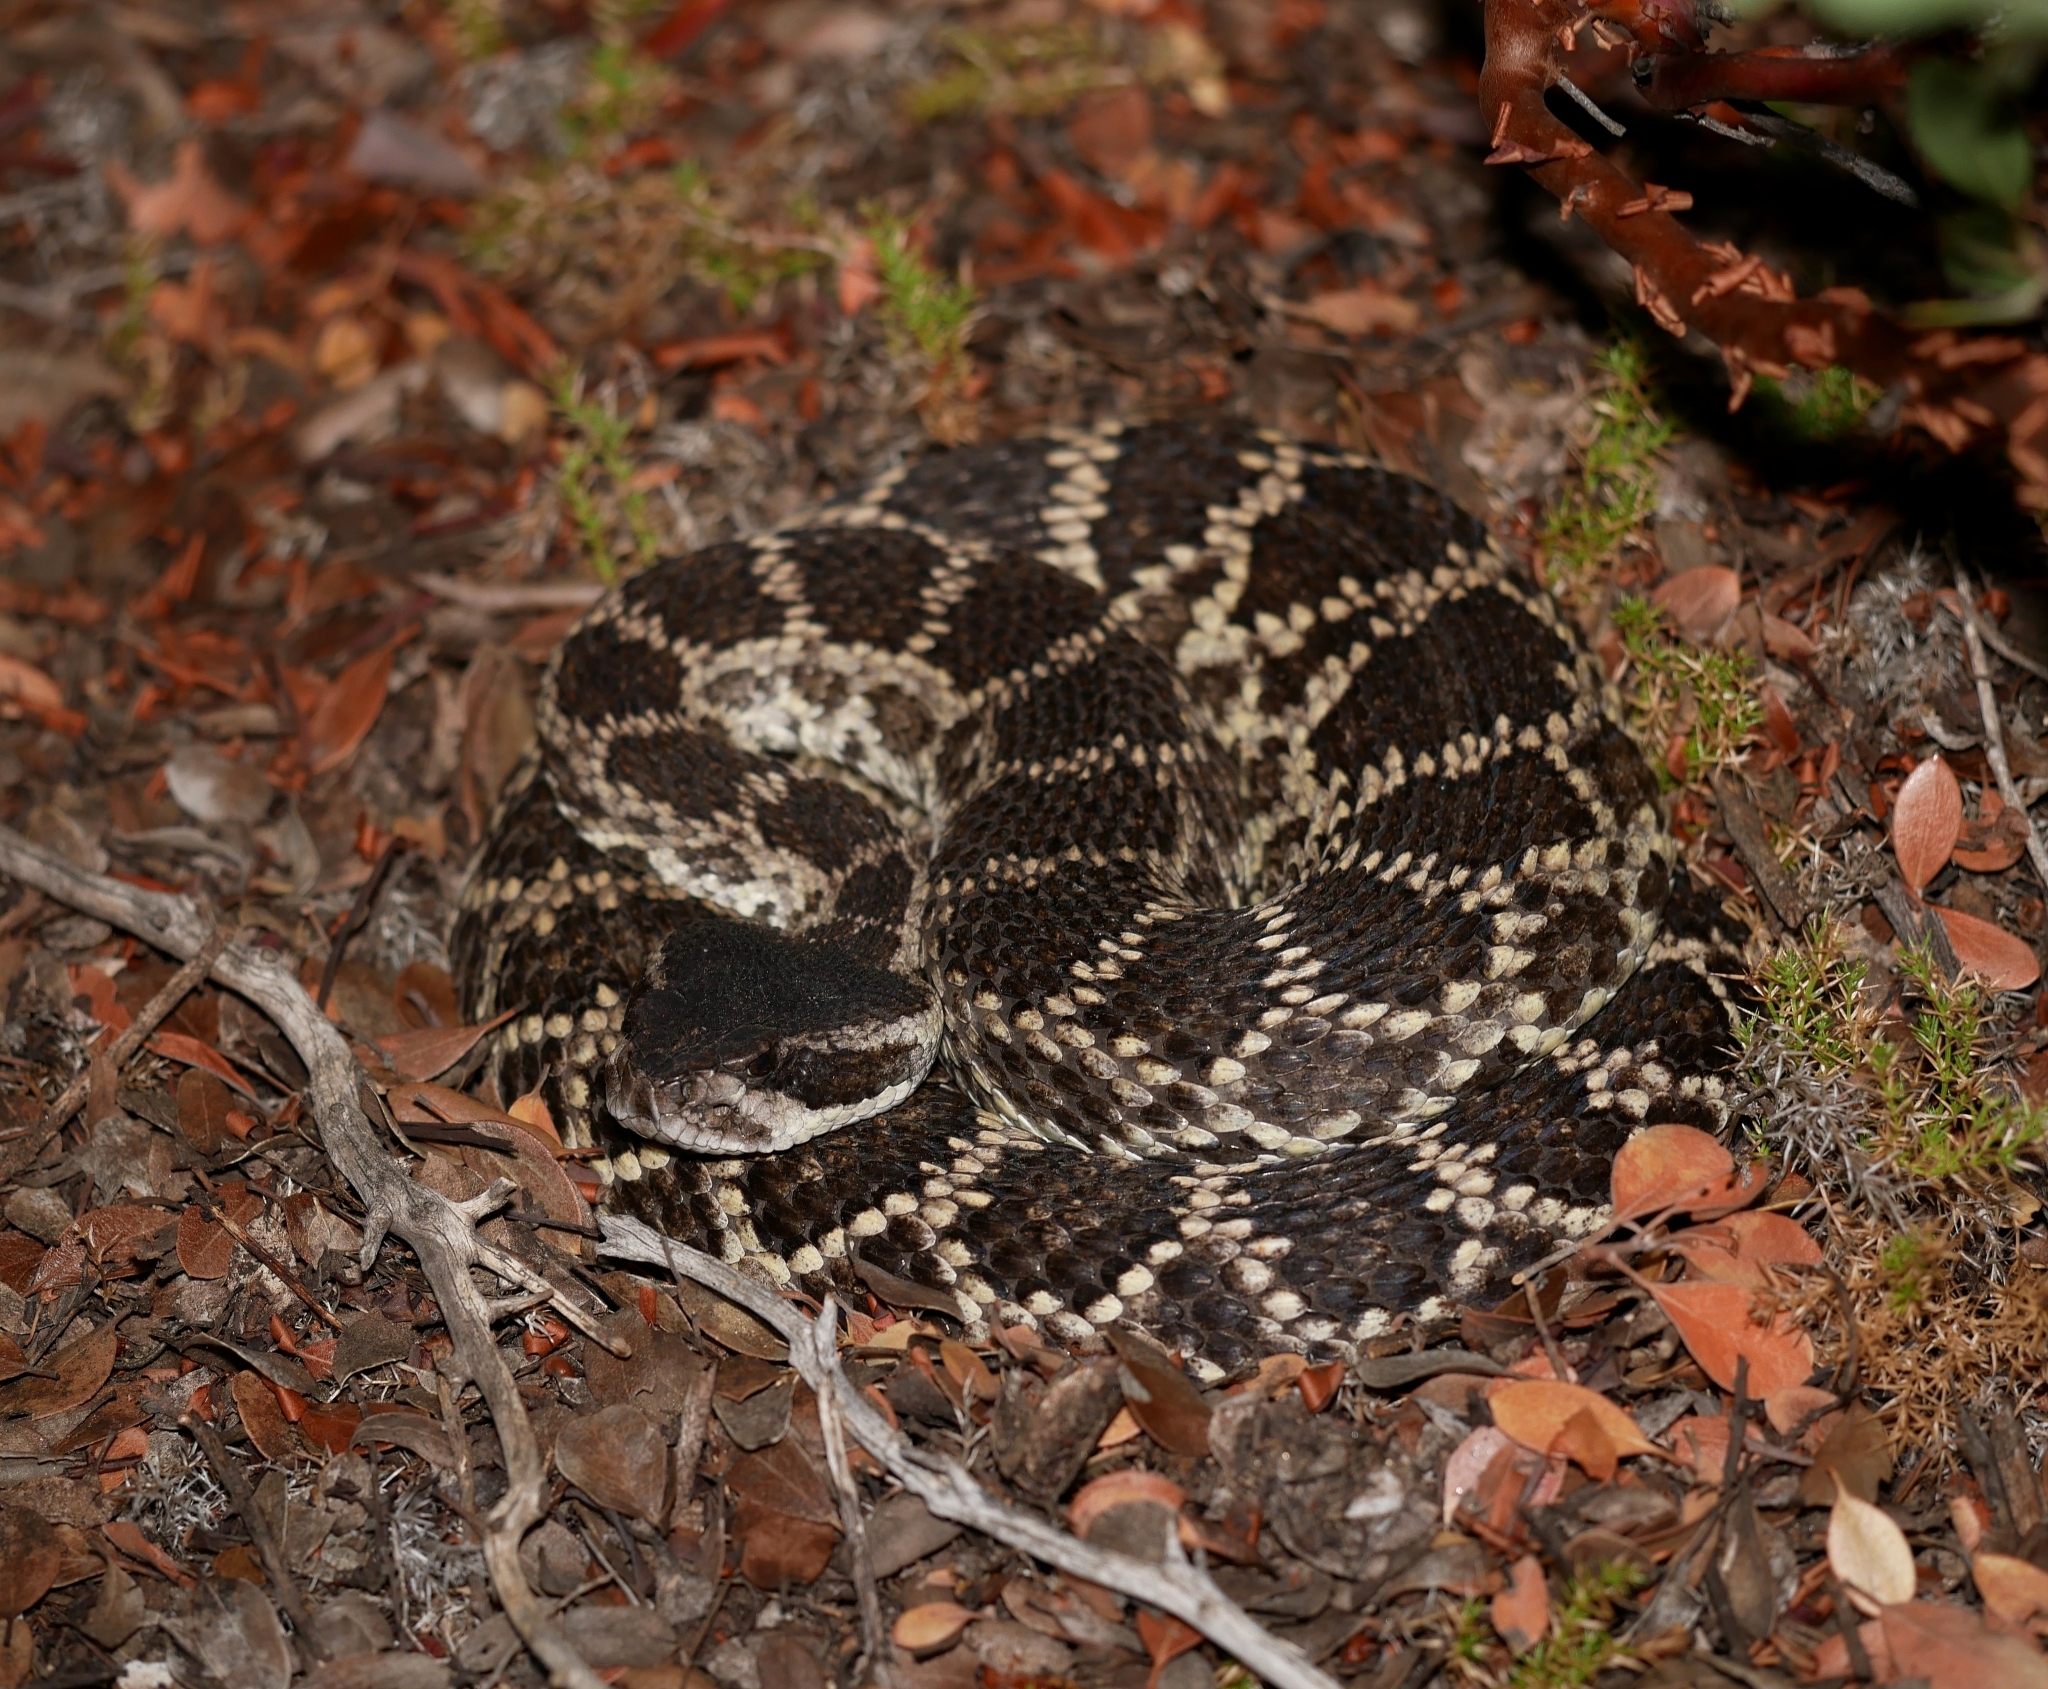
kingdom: Animalia
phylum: Chordata
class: Squamata
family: Viperidae
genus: Crotalus
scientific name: Crotalus oreganus
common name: Abyssus
